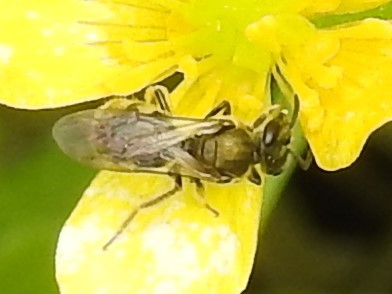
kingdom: Animalia
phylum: Arthropoda
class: Insecta
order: Hymenoptera
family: Halictidae
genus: Dialictus
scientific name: Dialictus
